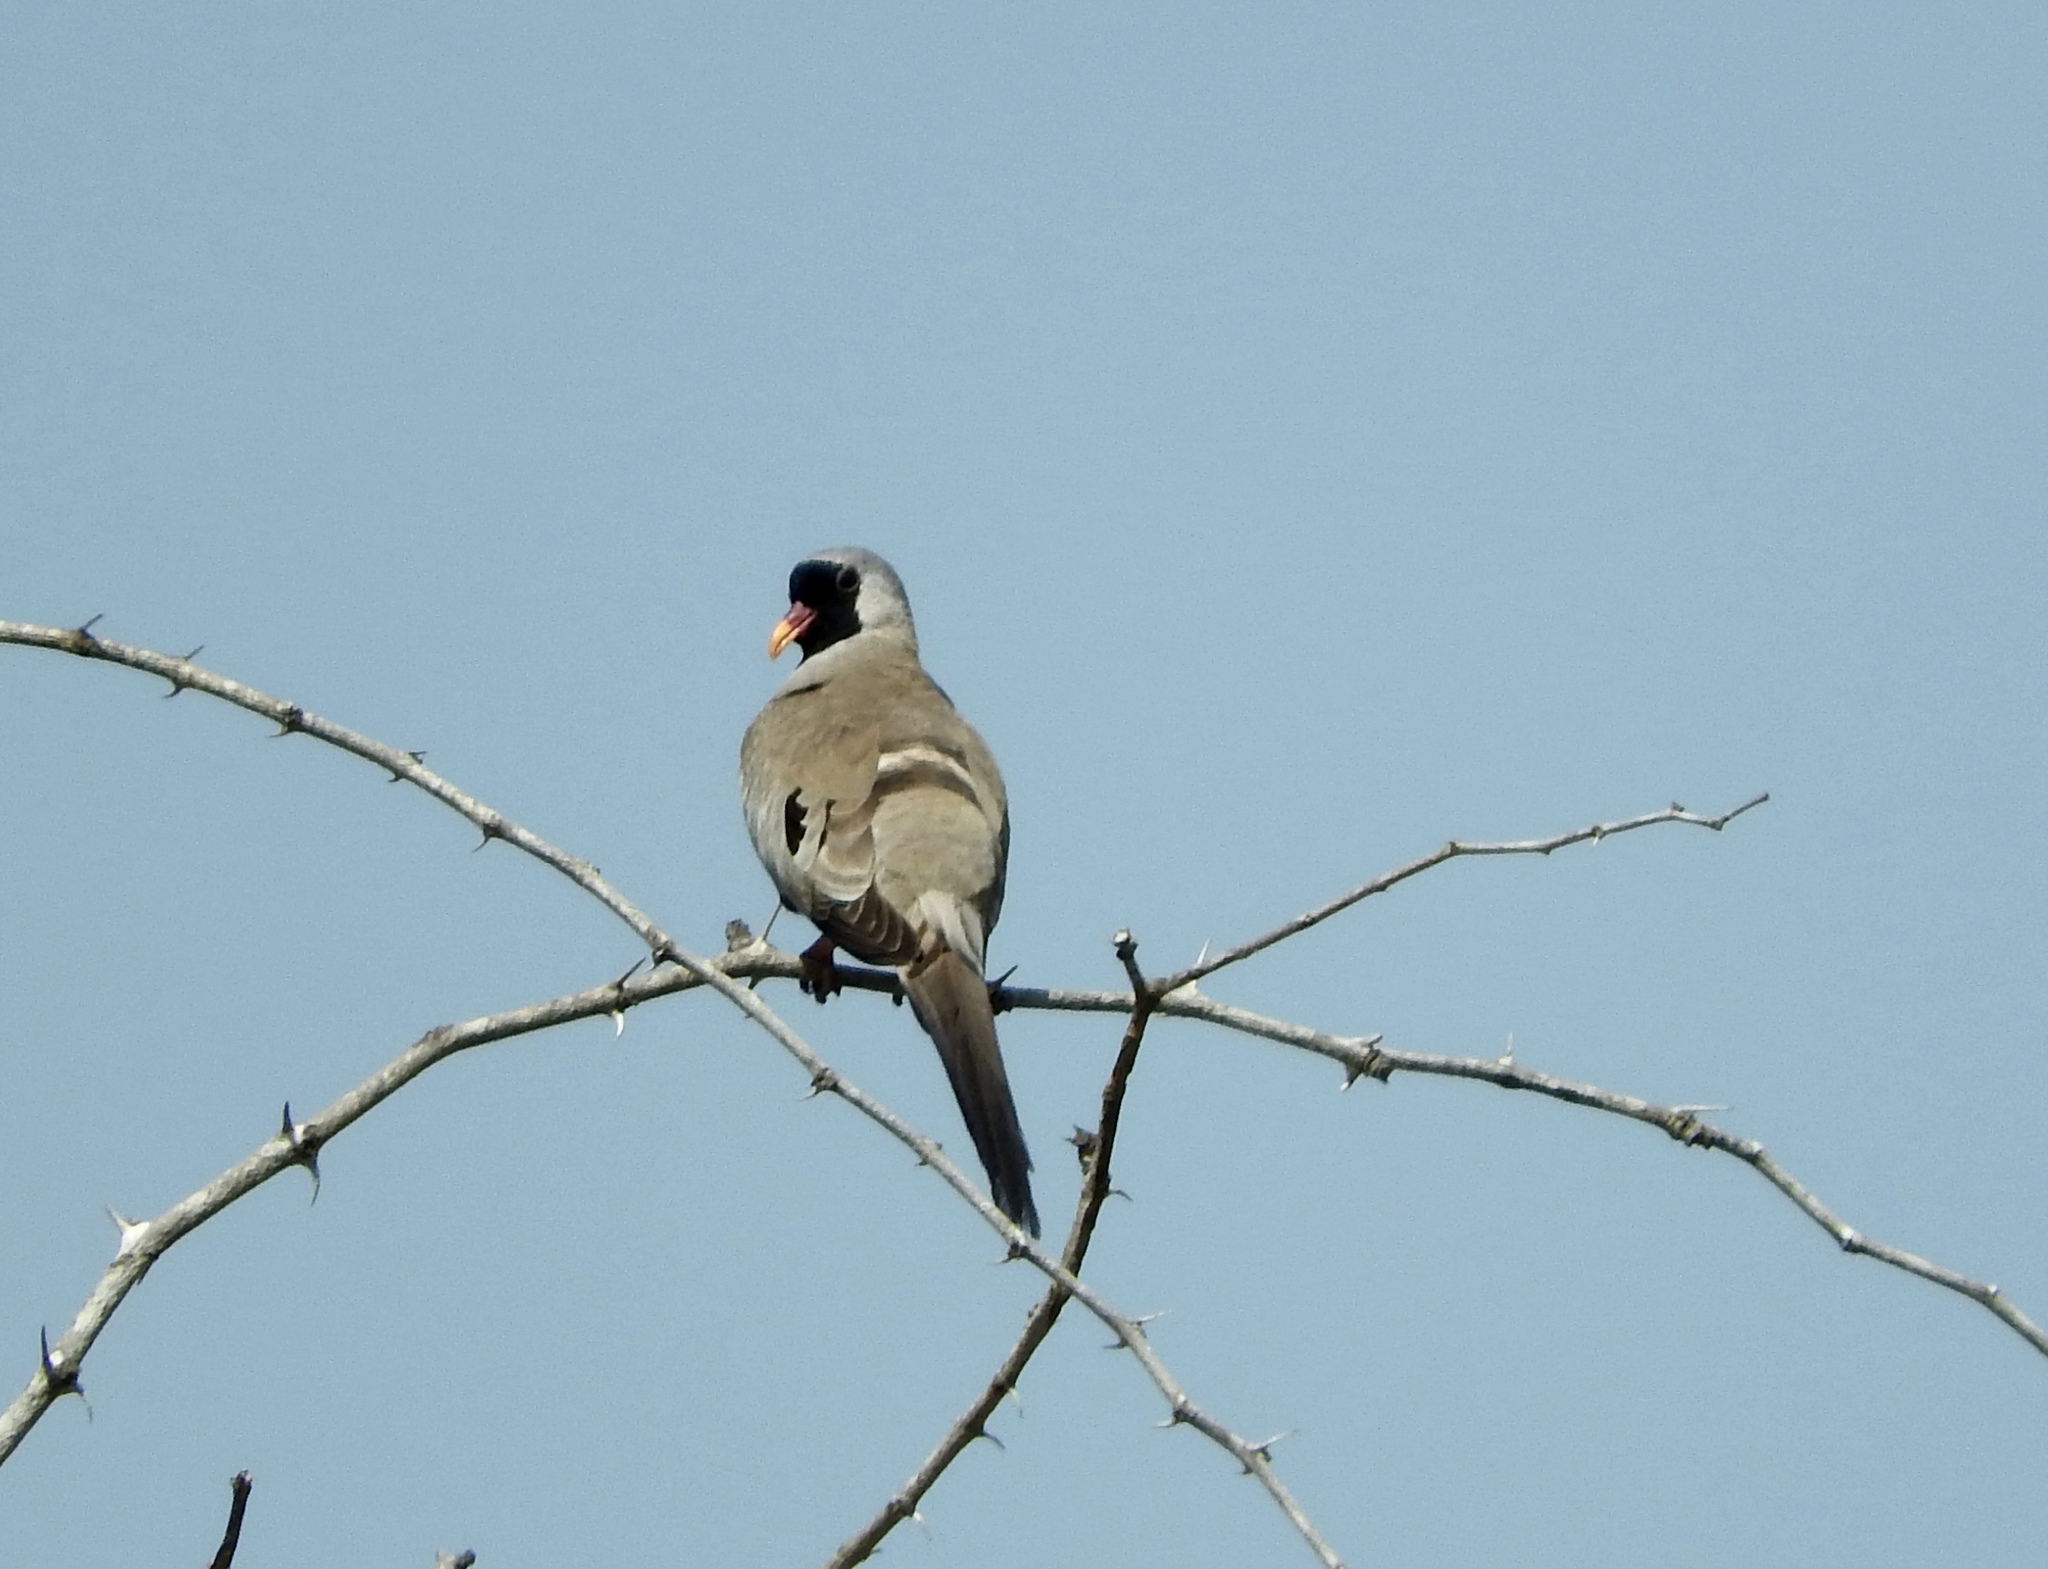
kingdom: Animalia
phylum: Chordata
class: Aves
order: Columbiformes
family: Columbidae
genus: Oena
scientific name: Oena capensis
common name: Namaqua dove
